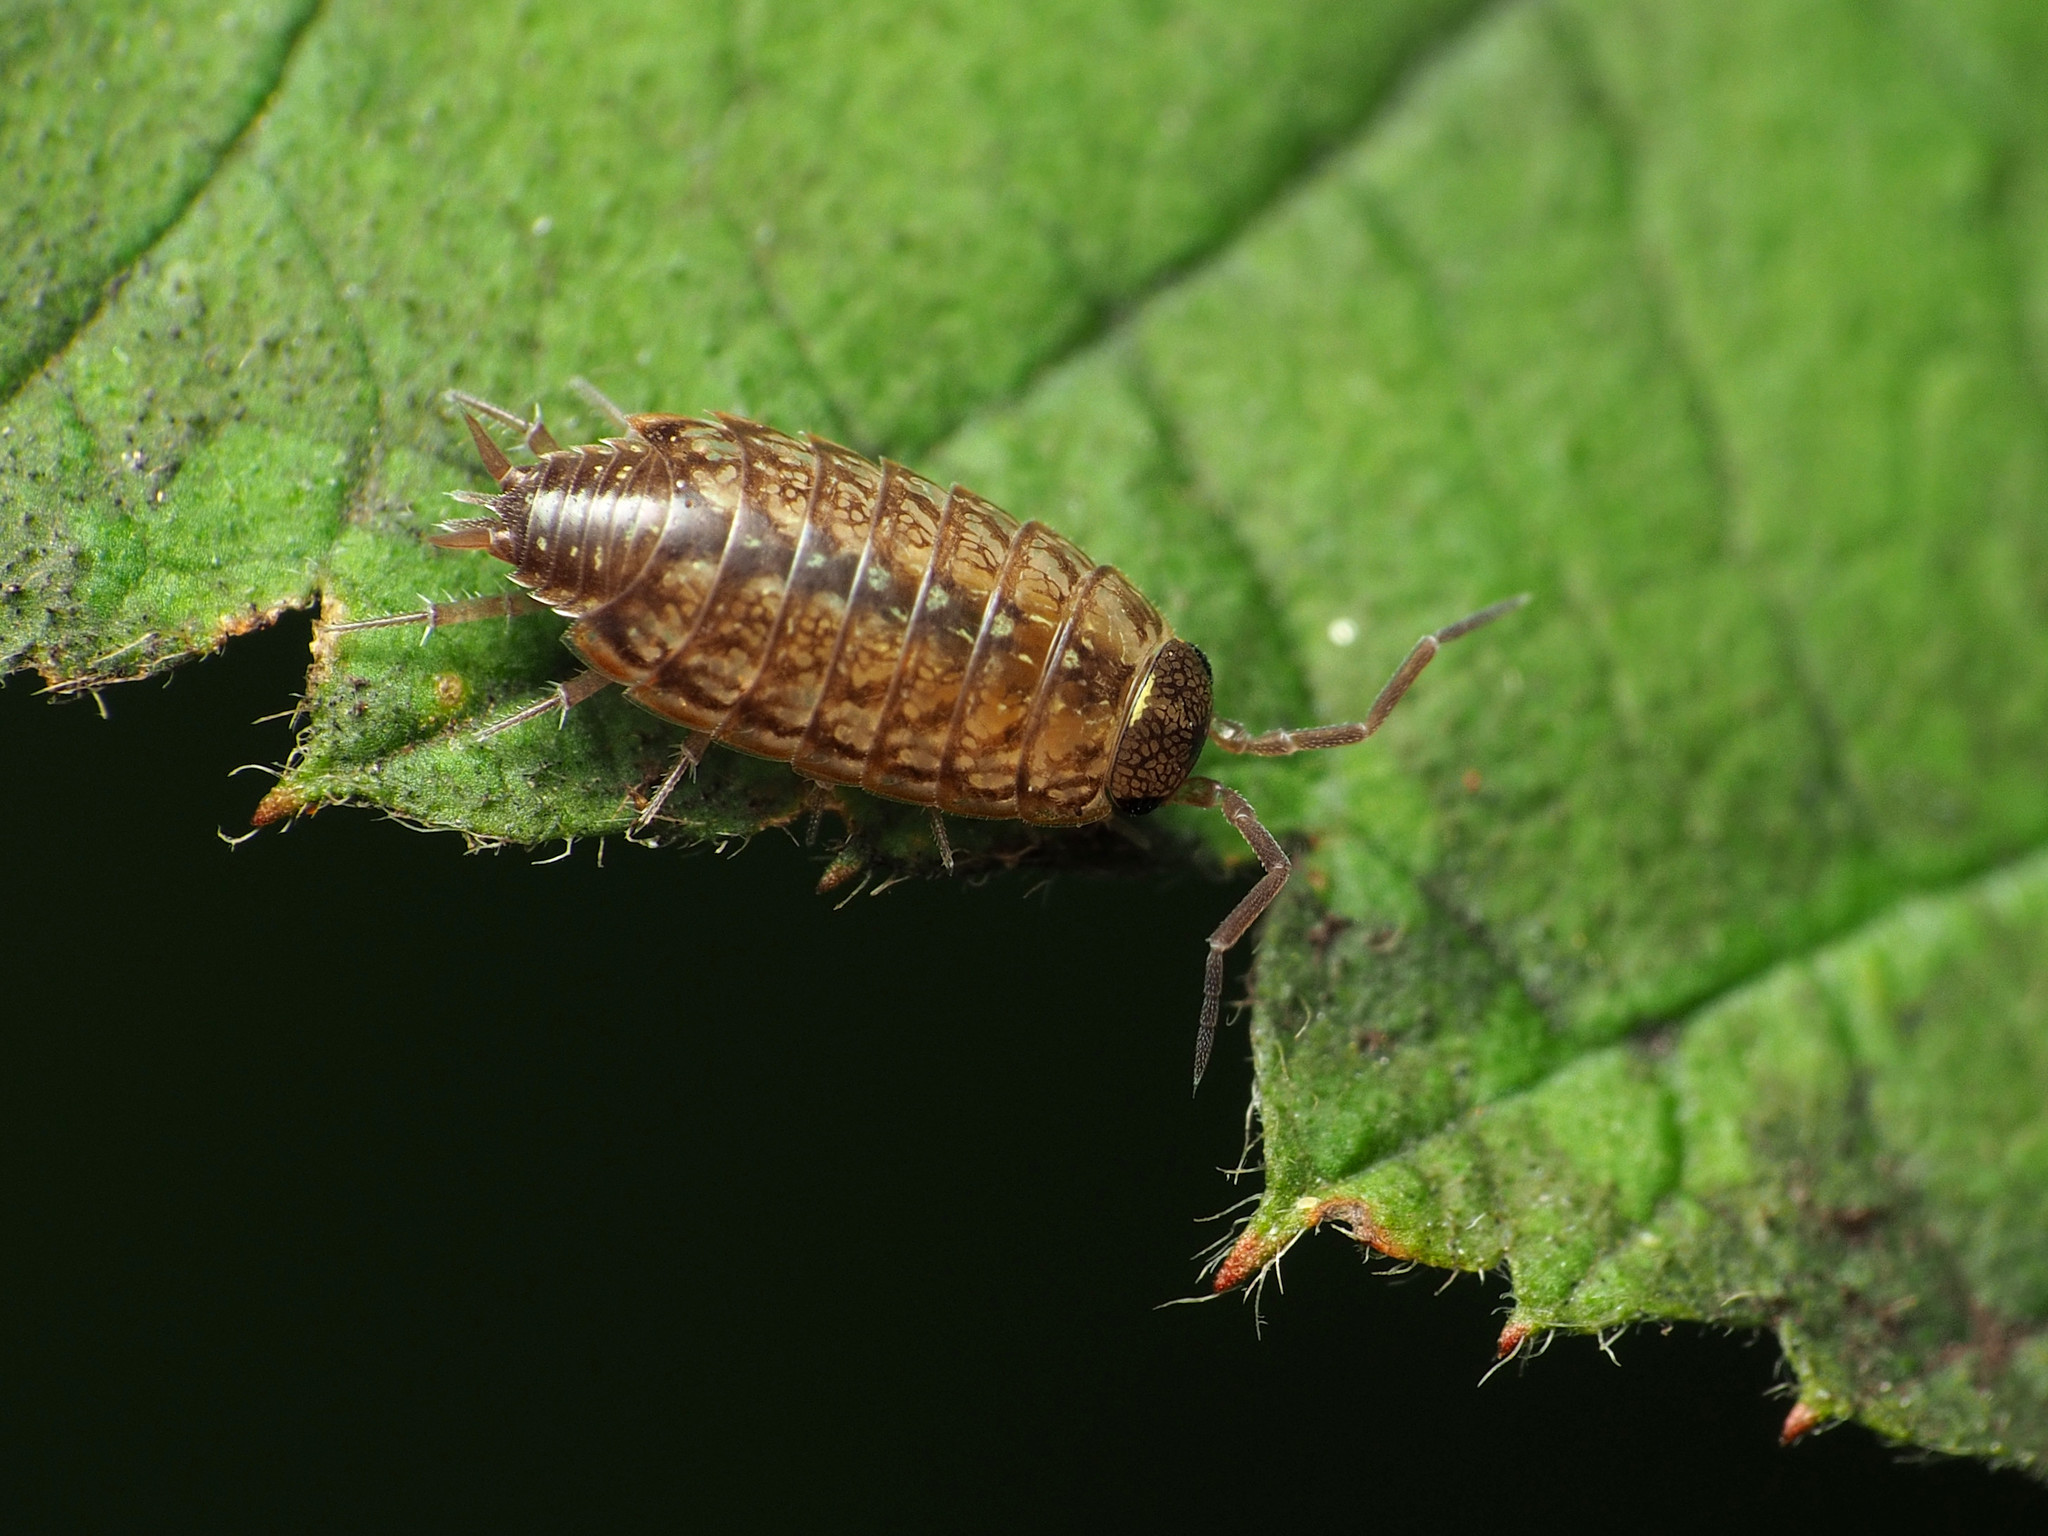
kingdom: Animalia
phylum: Arthropoda
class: Malacostraca
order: Isopoda
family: Philosciidae
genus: Philoscia
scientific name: Philoscia muscorum
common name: Common striped woodlouse
